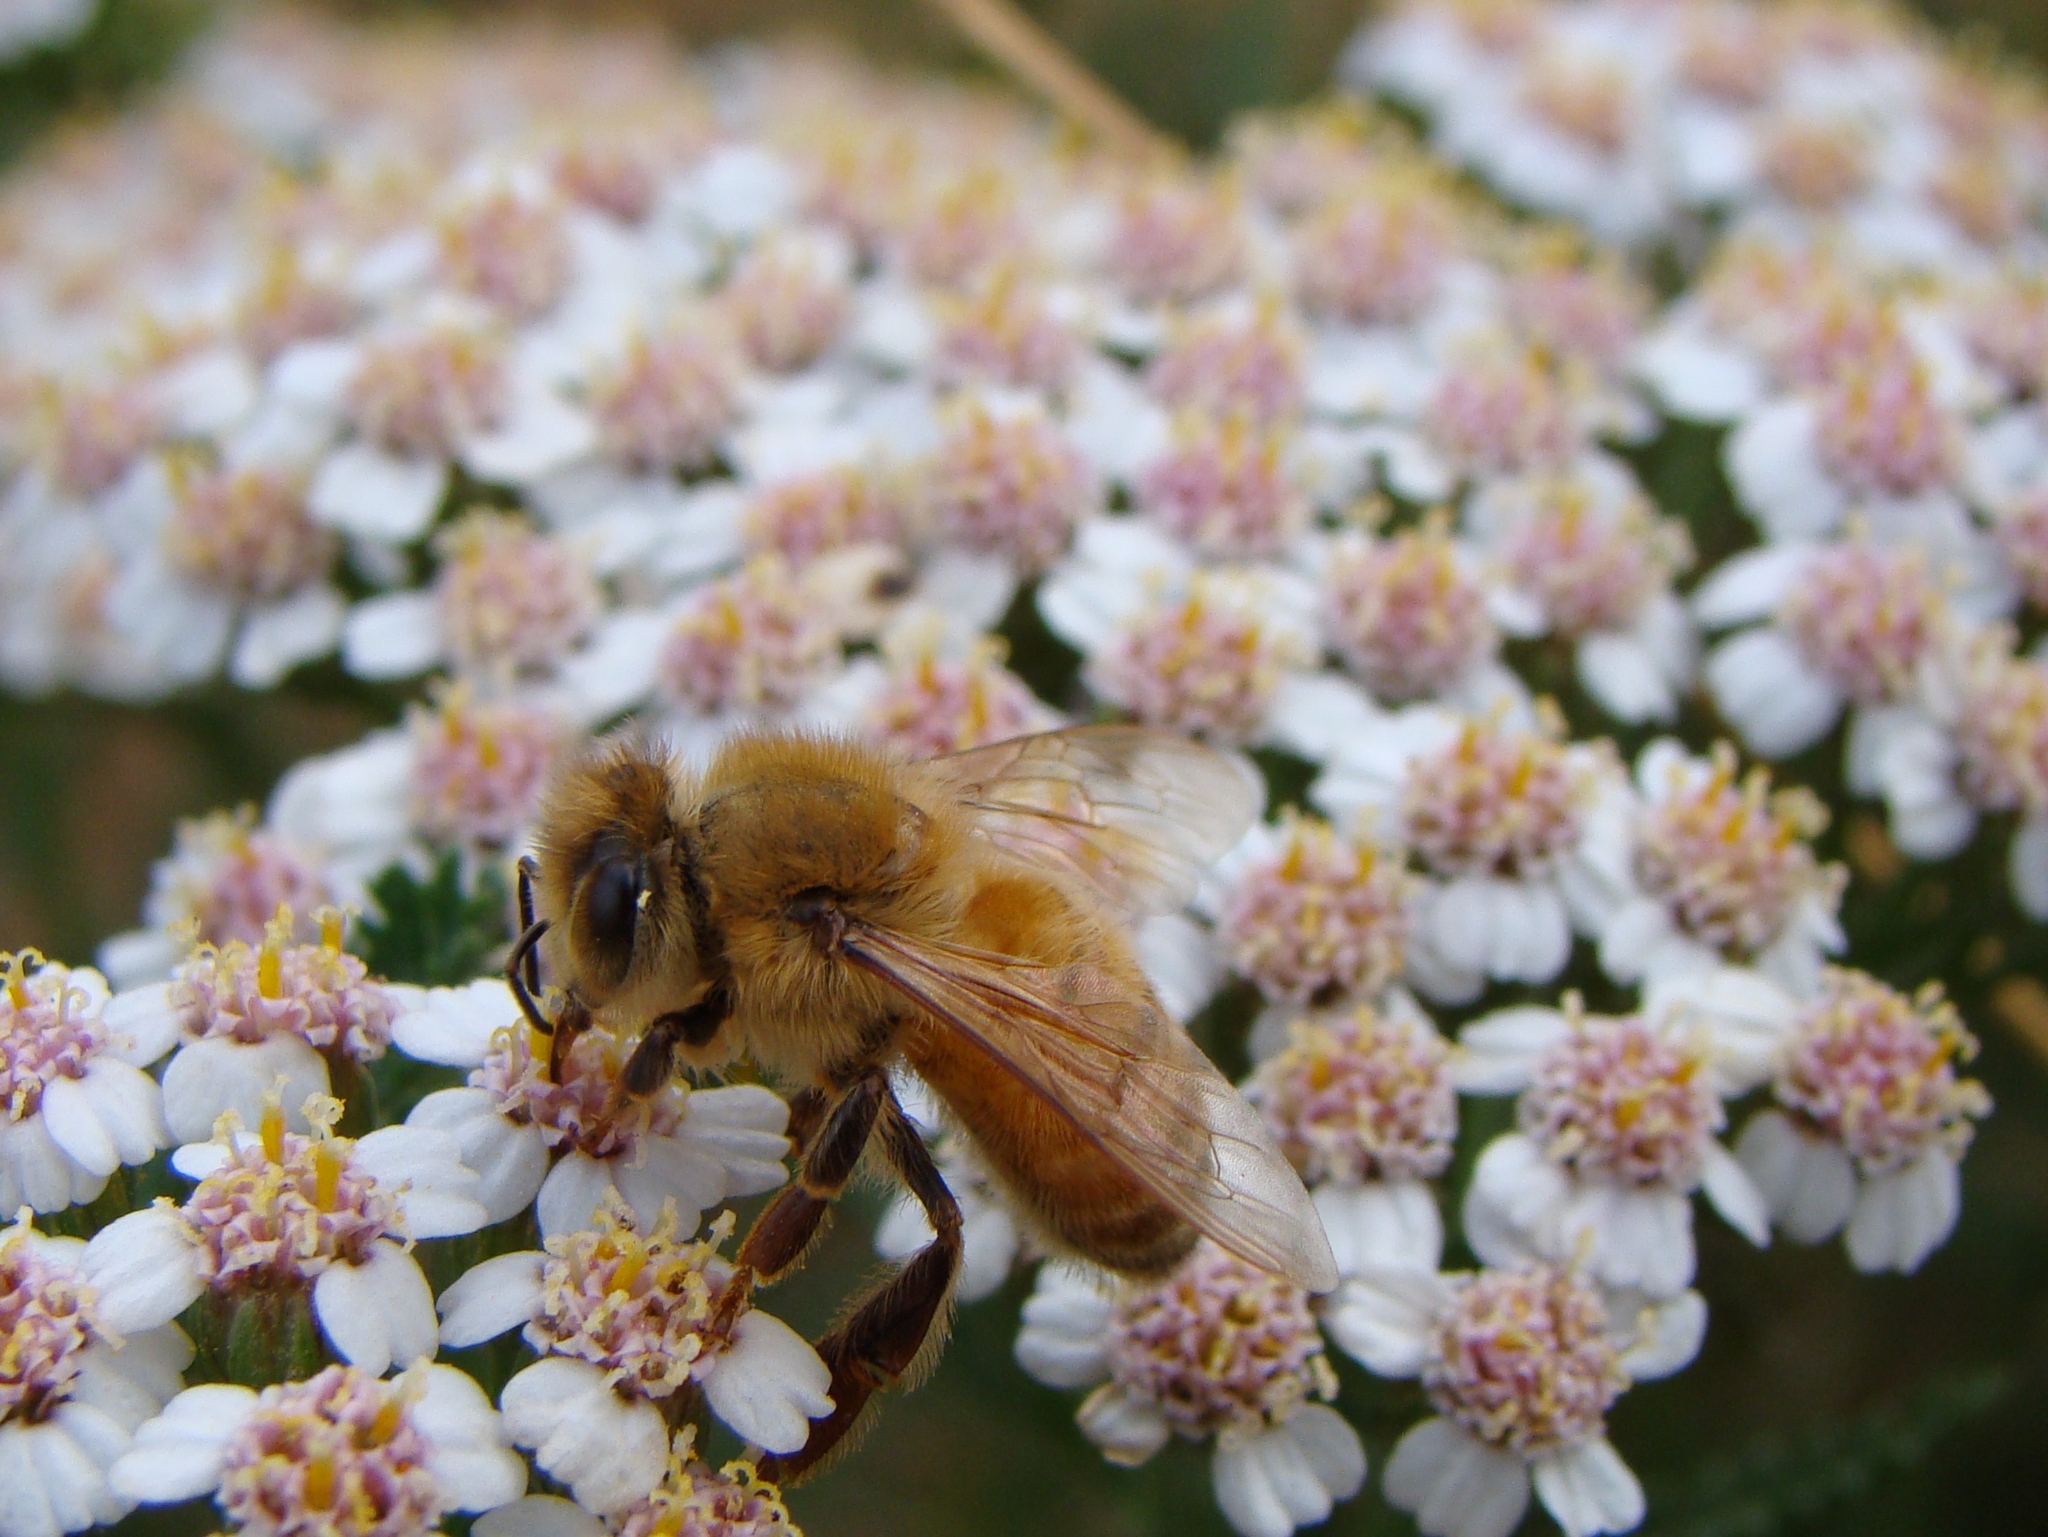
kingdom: Animalia
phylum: Arthropoda
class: Insecta
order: Hymenoptera
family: Apidae
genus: Apis
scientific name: Apis mellifera
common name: Honey bee
